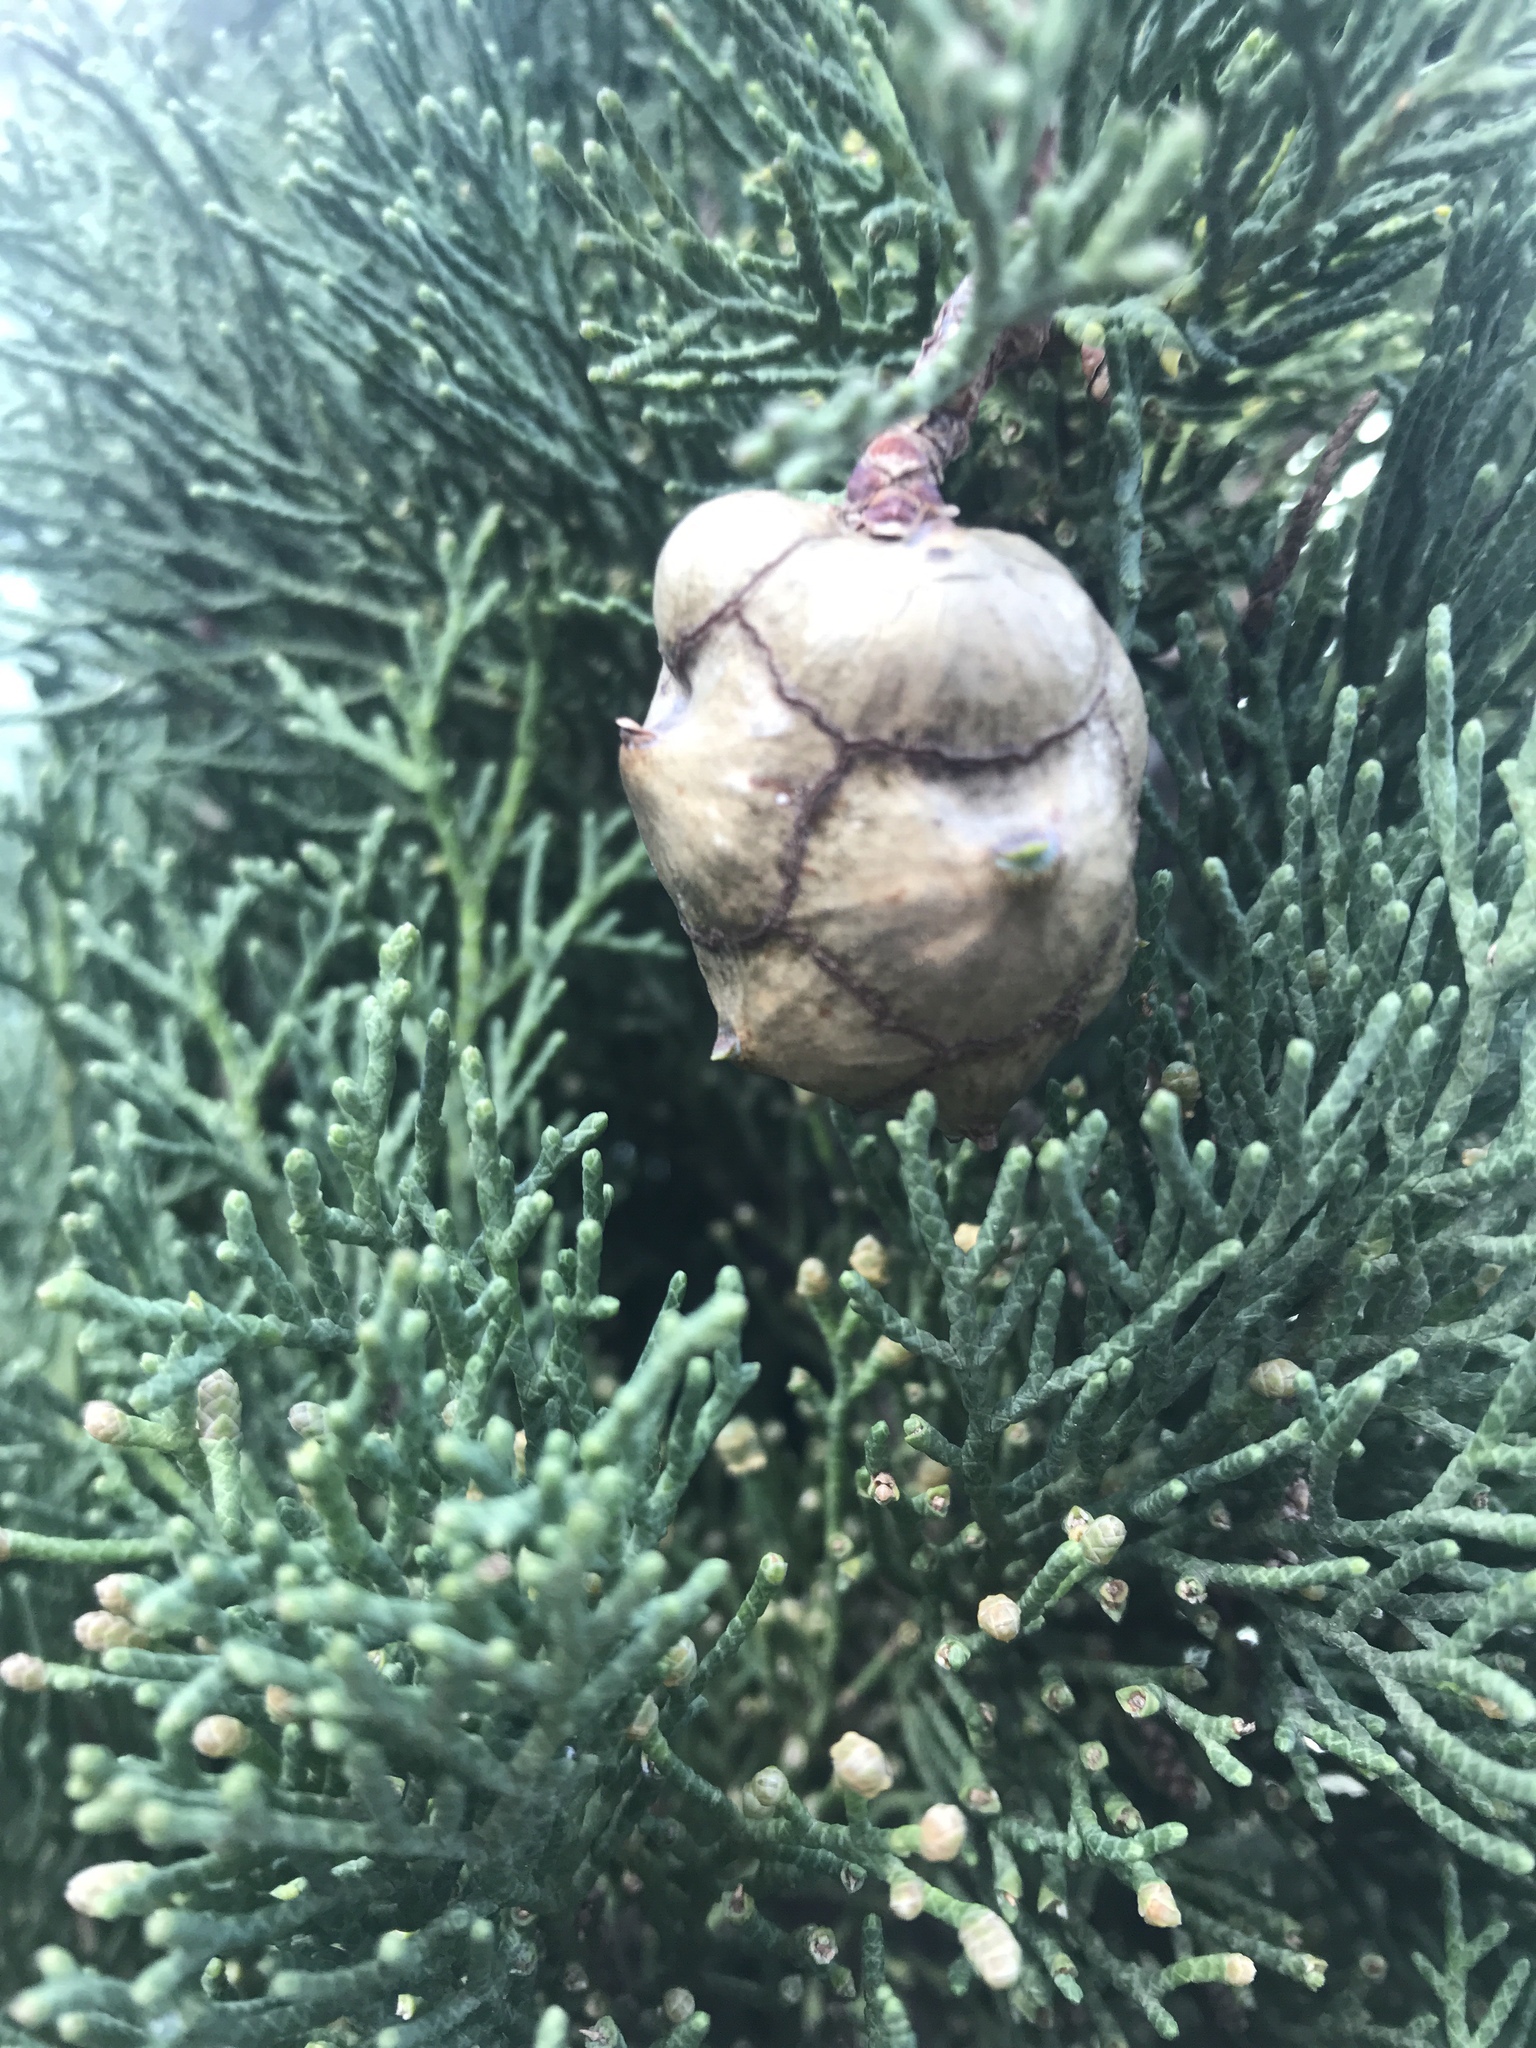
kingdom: Plantae
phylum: Tracheophyta
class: Pinopsida
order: Pinales
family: Cupressaceae
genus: Cupressus
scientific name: Cupressus macrocarpa
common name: Monterey cypress
